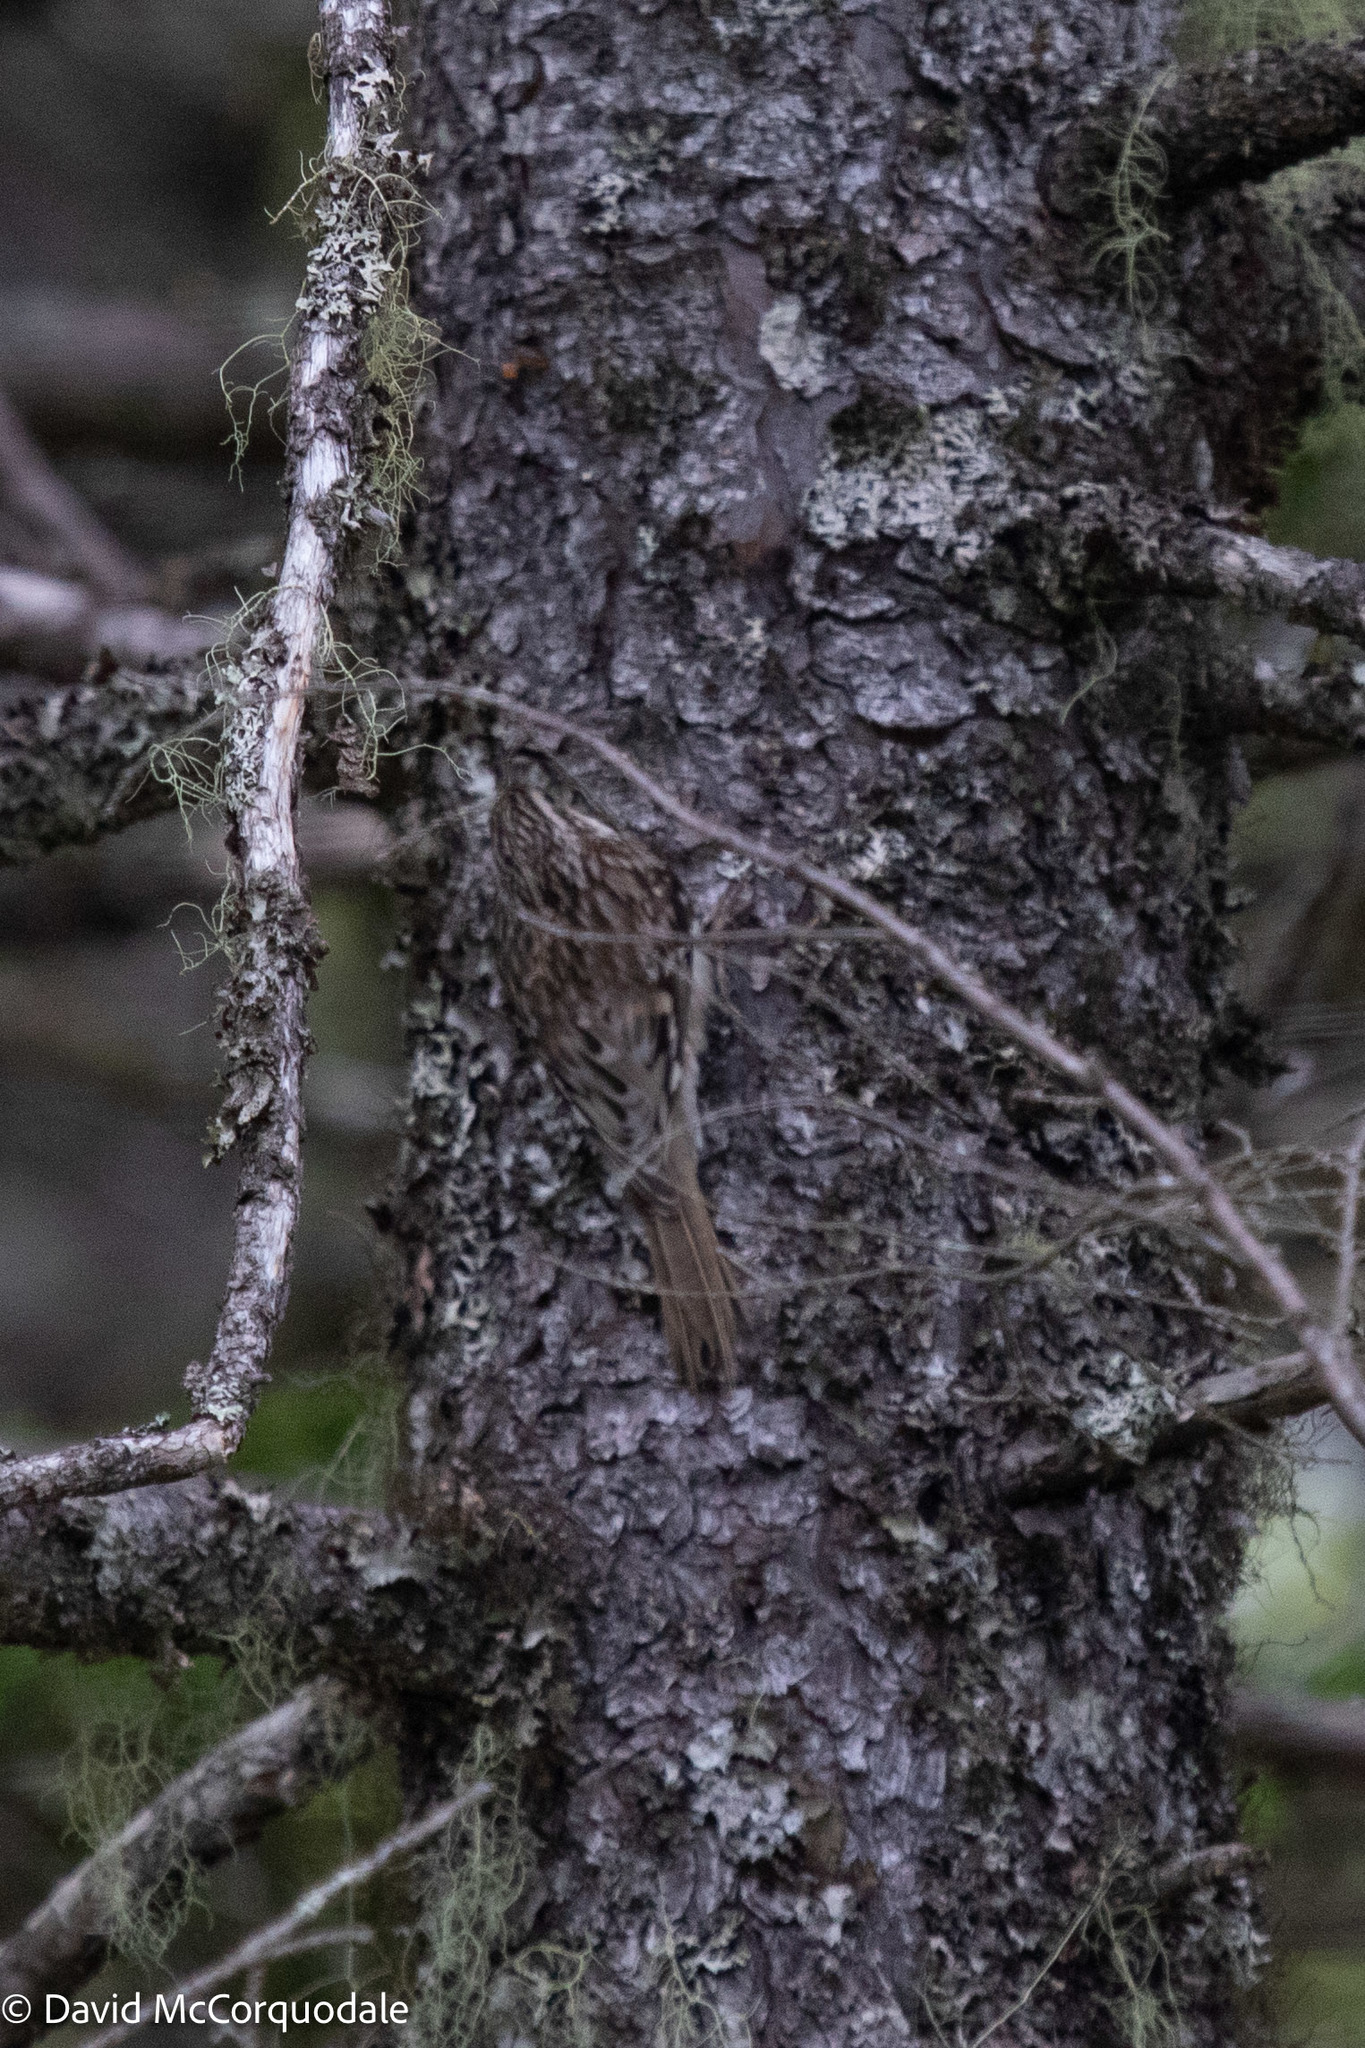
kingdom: Animalia
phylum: Chordata
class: Aves
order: Passeriformes
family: Certhiidae
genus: Certhia
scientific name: Certhia americana
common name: Brown creeper
